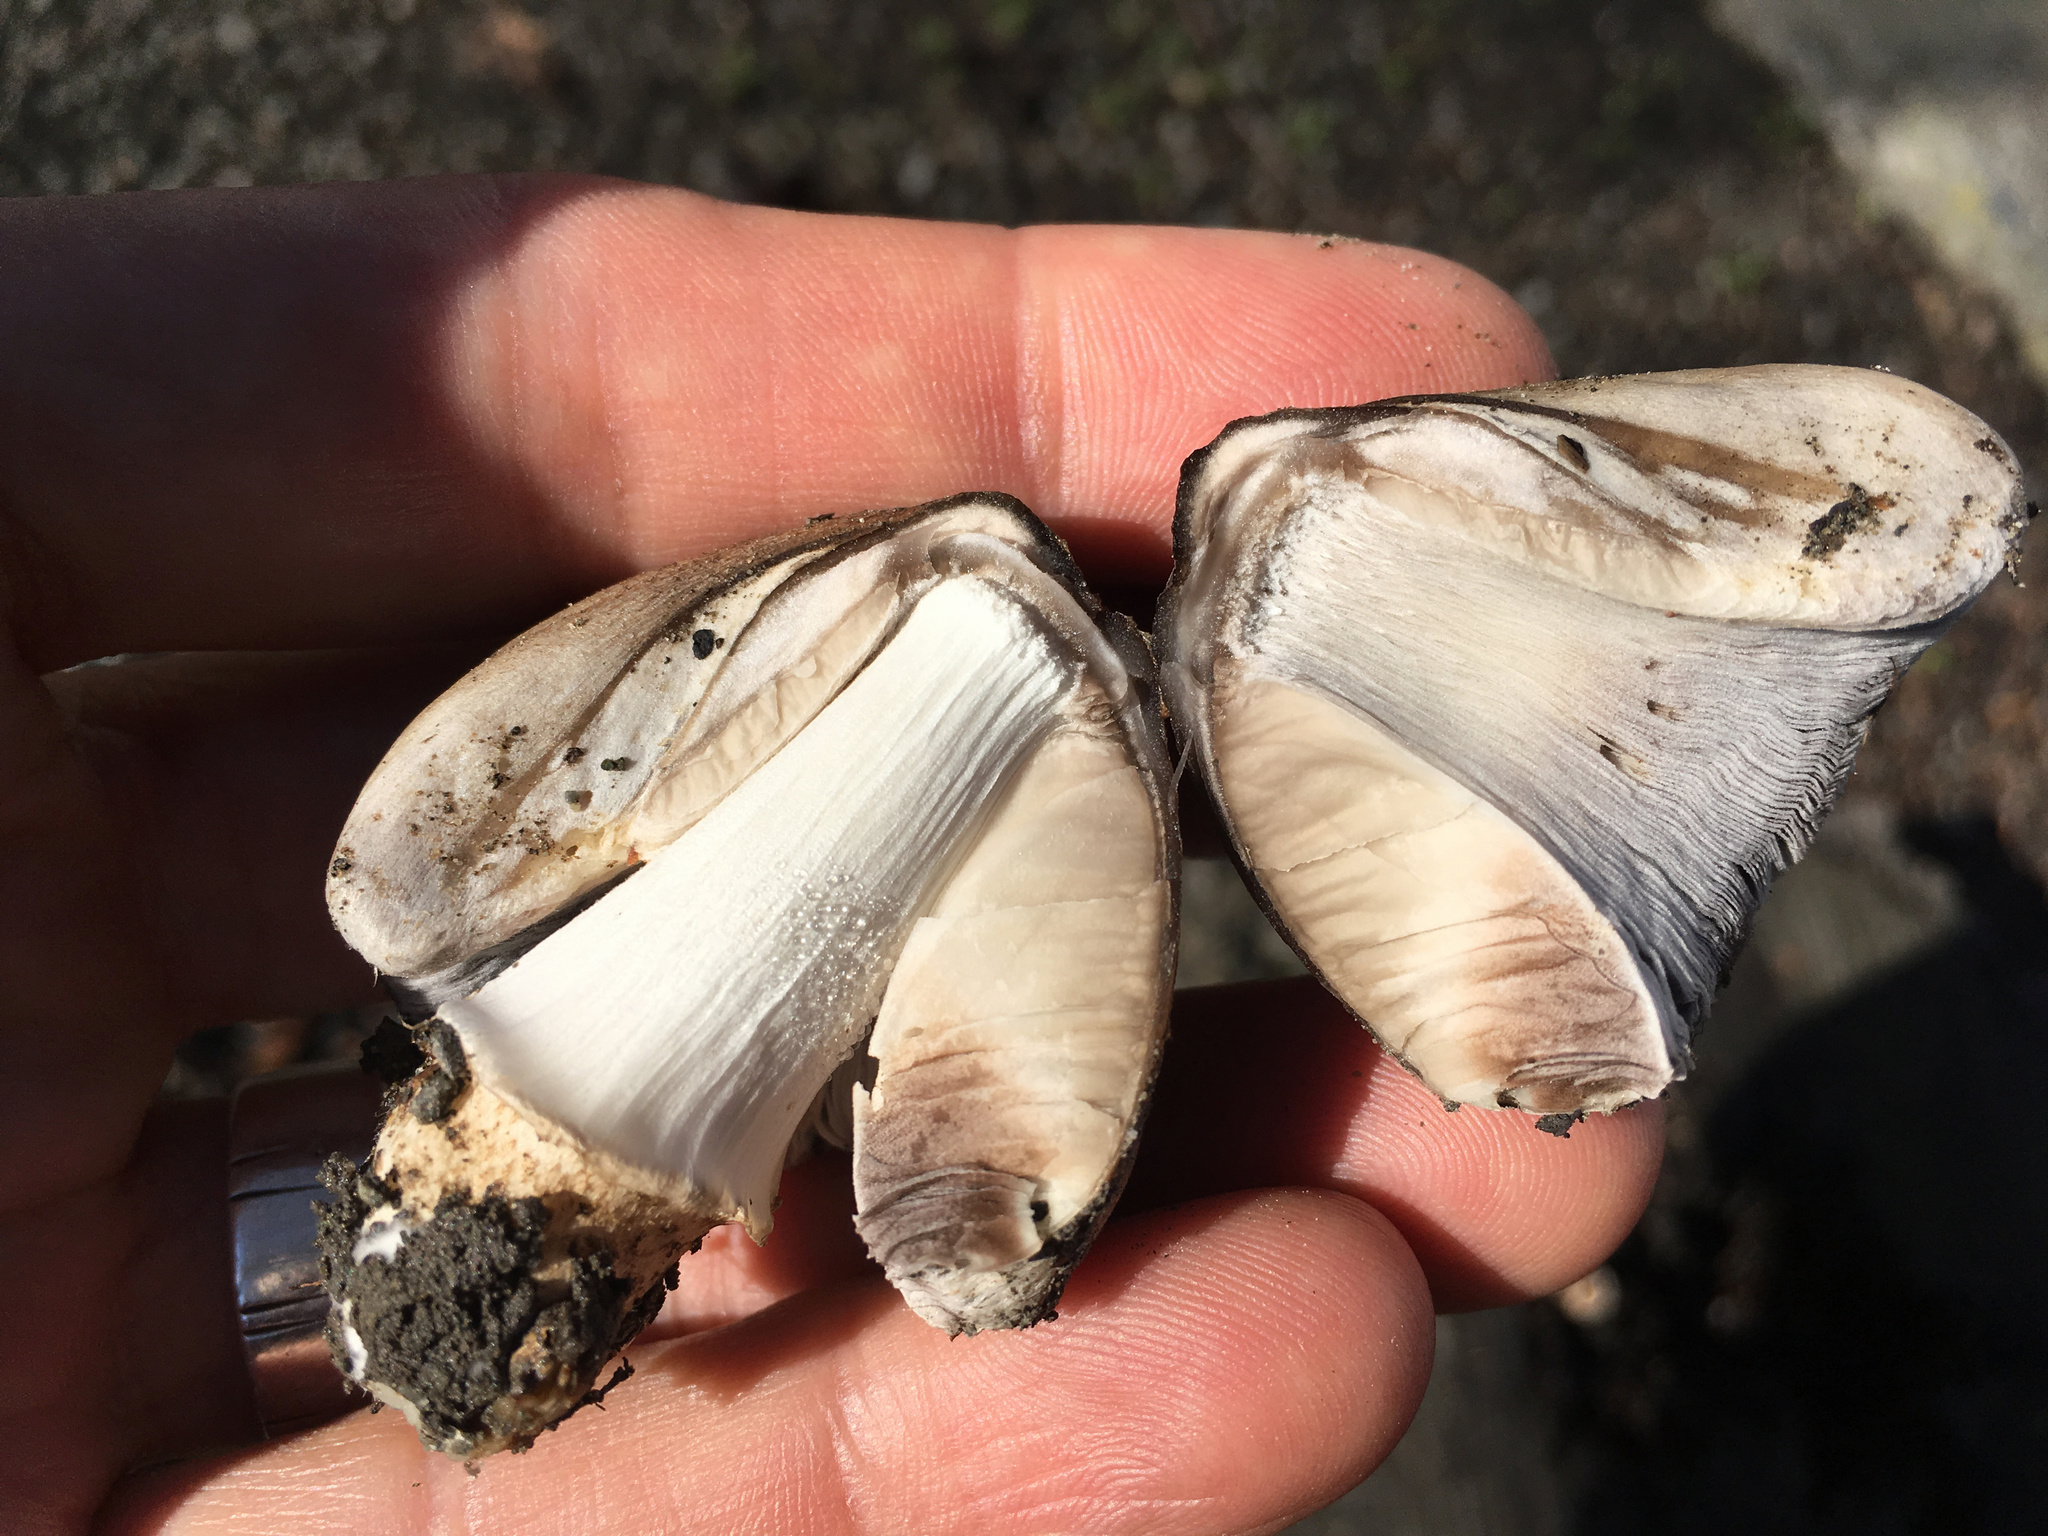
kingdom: Fungi
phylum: Basidiomycota
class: Agaricomycetes
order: Agaricales
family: Psathyrellaceae
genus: Coprinopsis
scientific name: Coprinopsis atramentaria
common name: Common ink-cap
